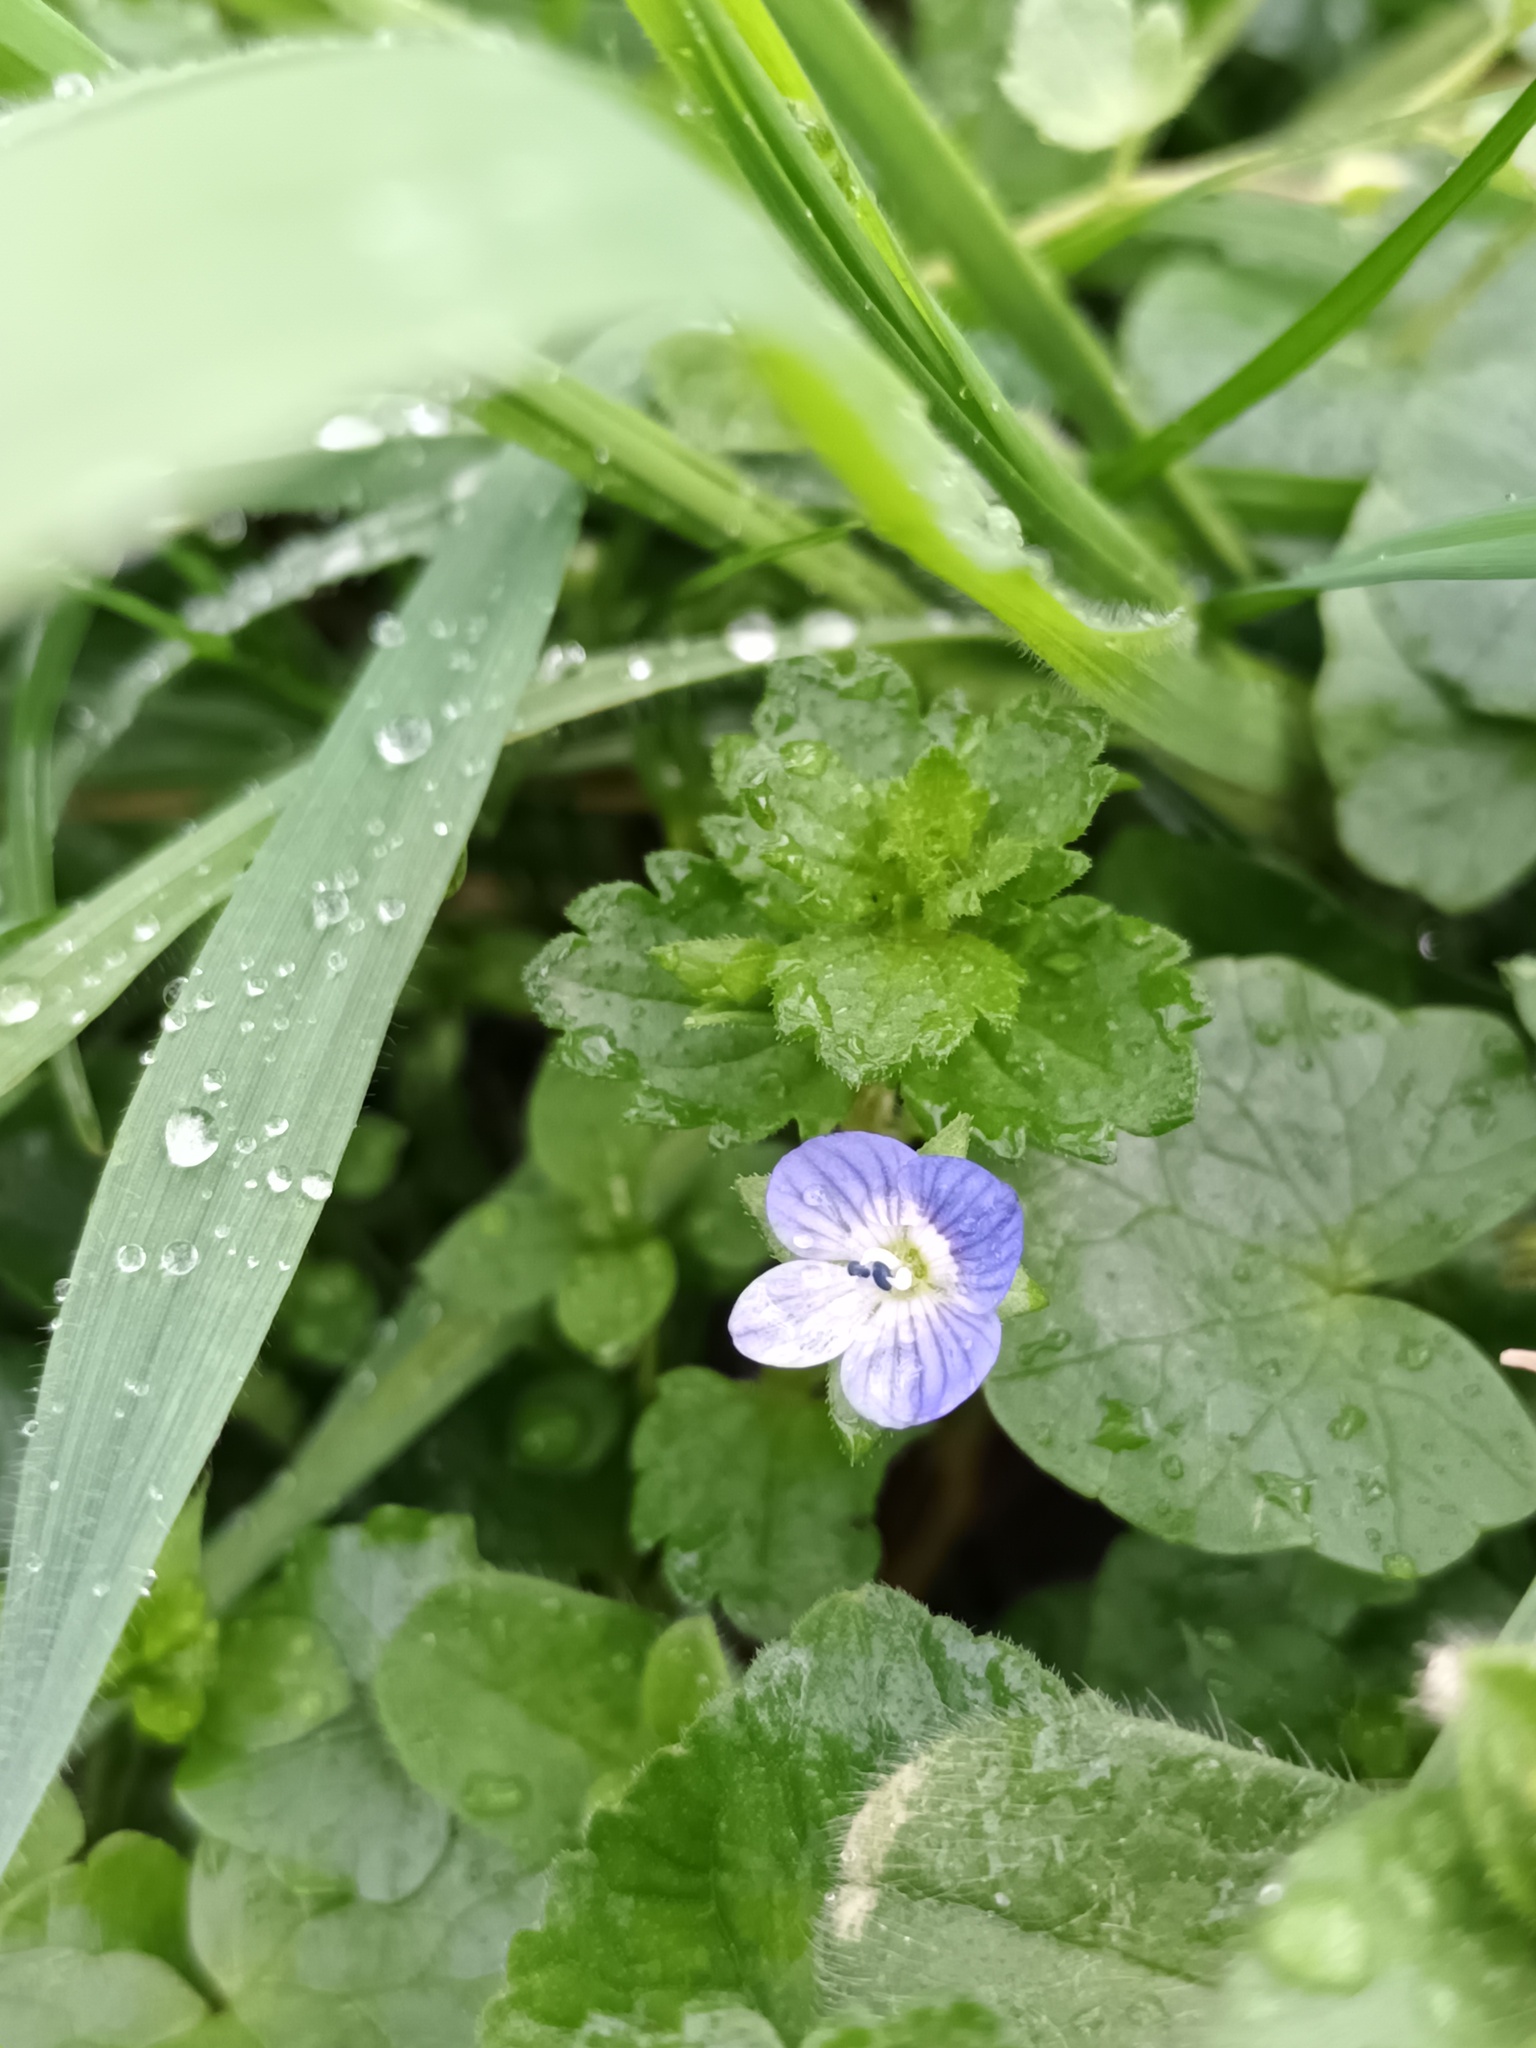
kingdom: Plantae
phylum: Tracheophyta
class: Magnoliopsida
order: Lamiales
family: Plantaginaceae
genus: Veronica
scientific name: Veronica persica
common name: Common field-speedwell
